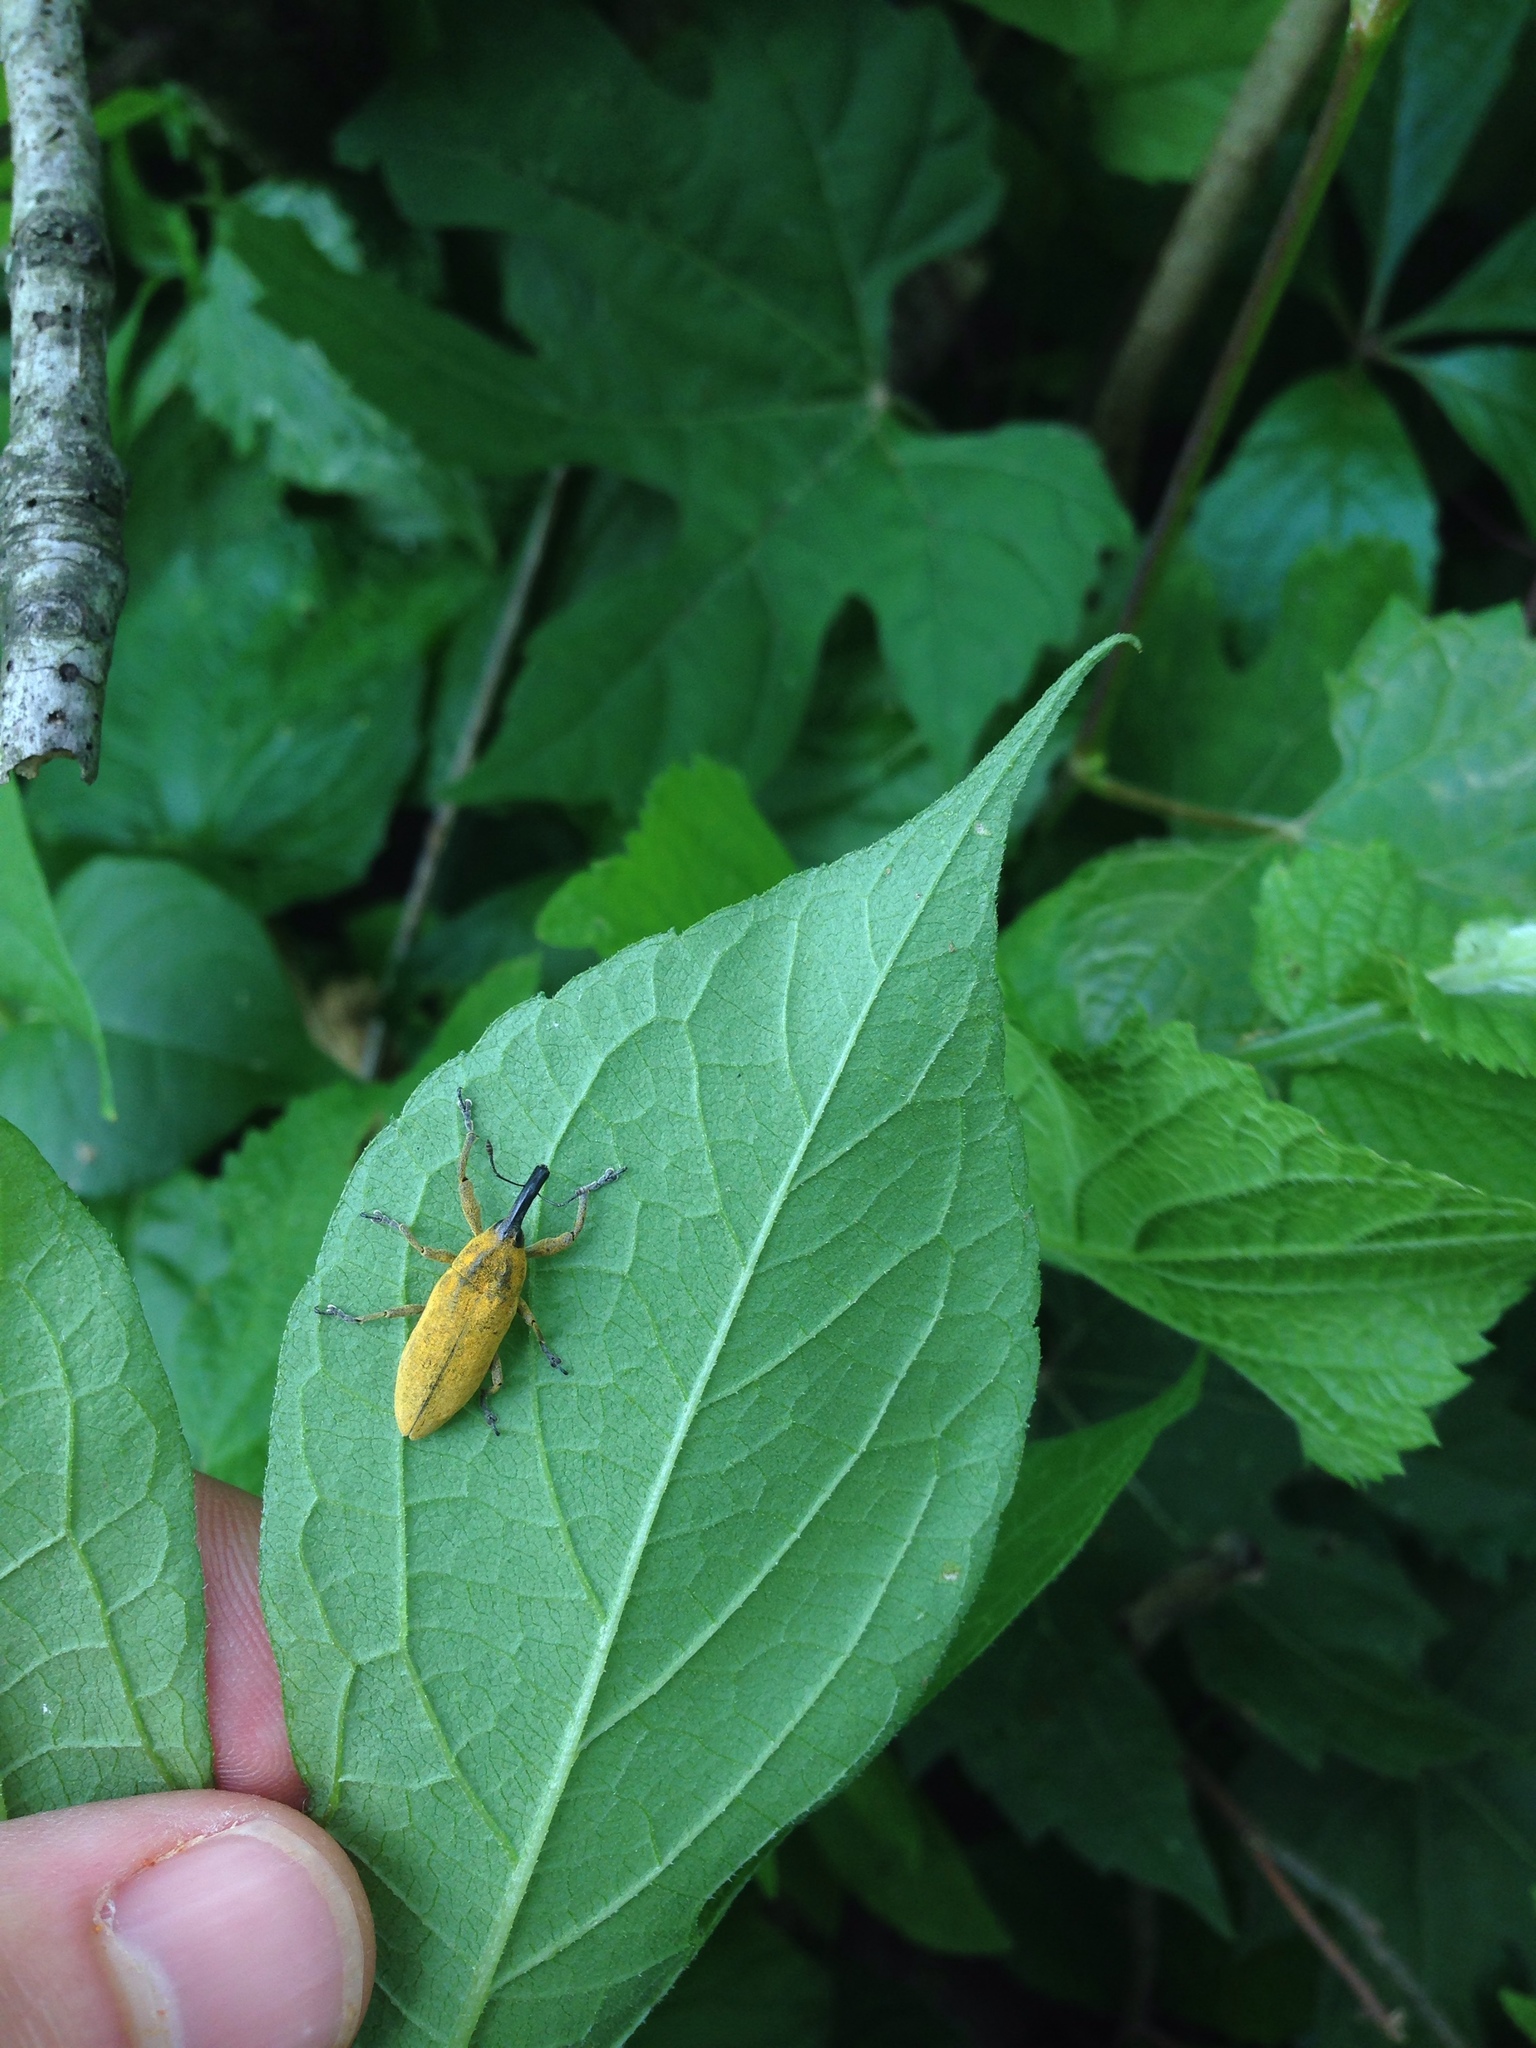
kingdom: Animalia
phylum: Arthropoda
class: Insecta
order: Coleoptera
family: Curculionidae
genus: Lixus
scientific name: Lixus concavus
